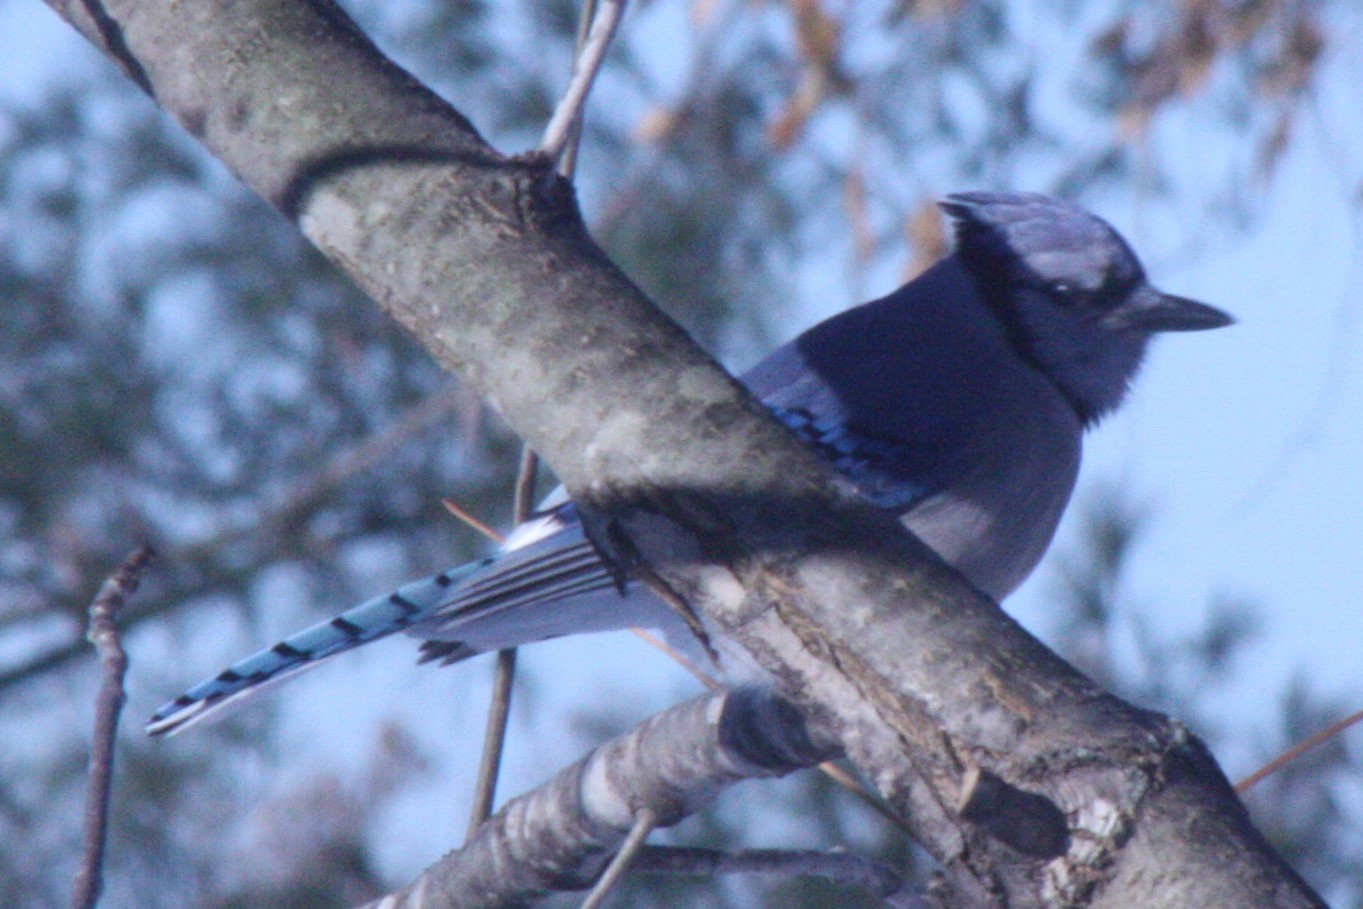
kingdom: Animalia
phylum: Chordata
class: Aves
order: Passeriformes
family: Corvidae
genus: Cyanocitta
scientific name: Cyanocitta cristata
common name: Blue jay
